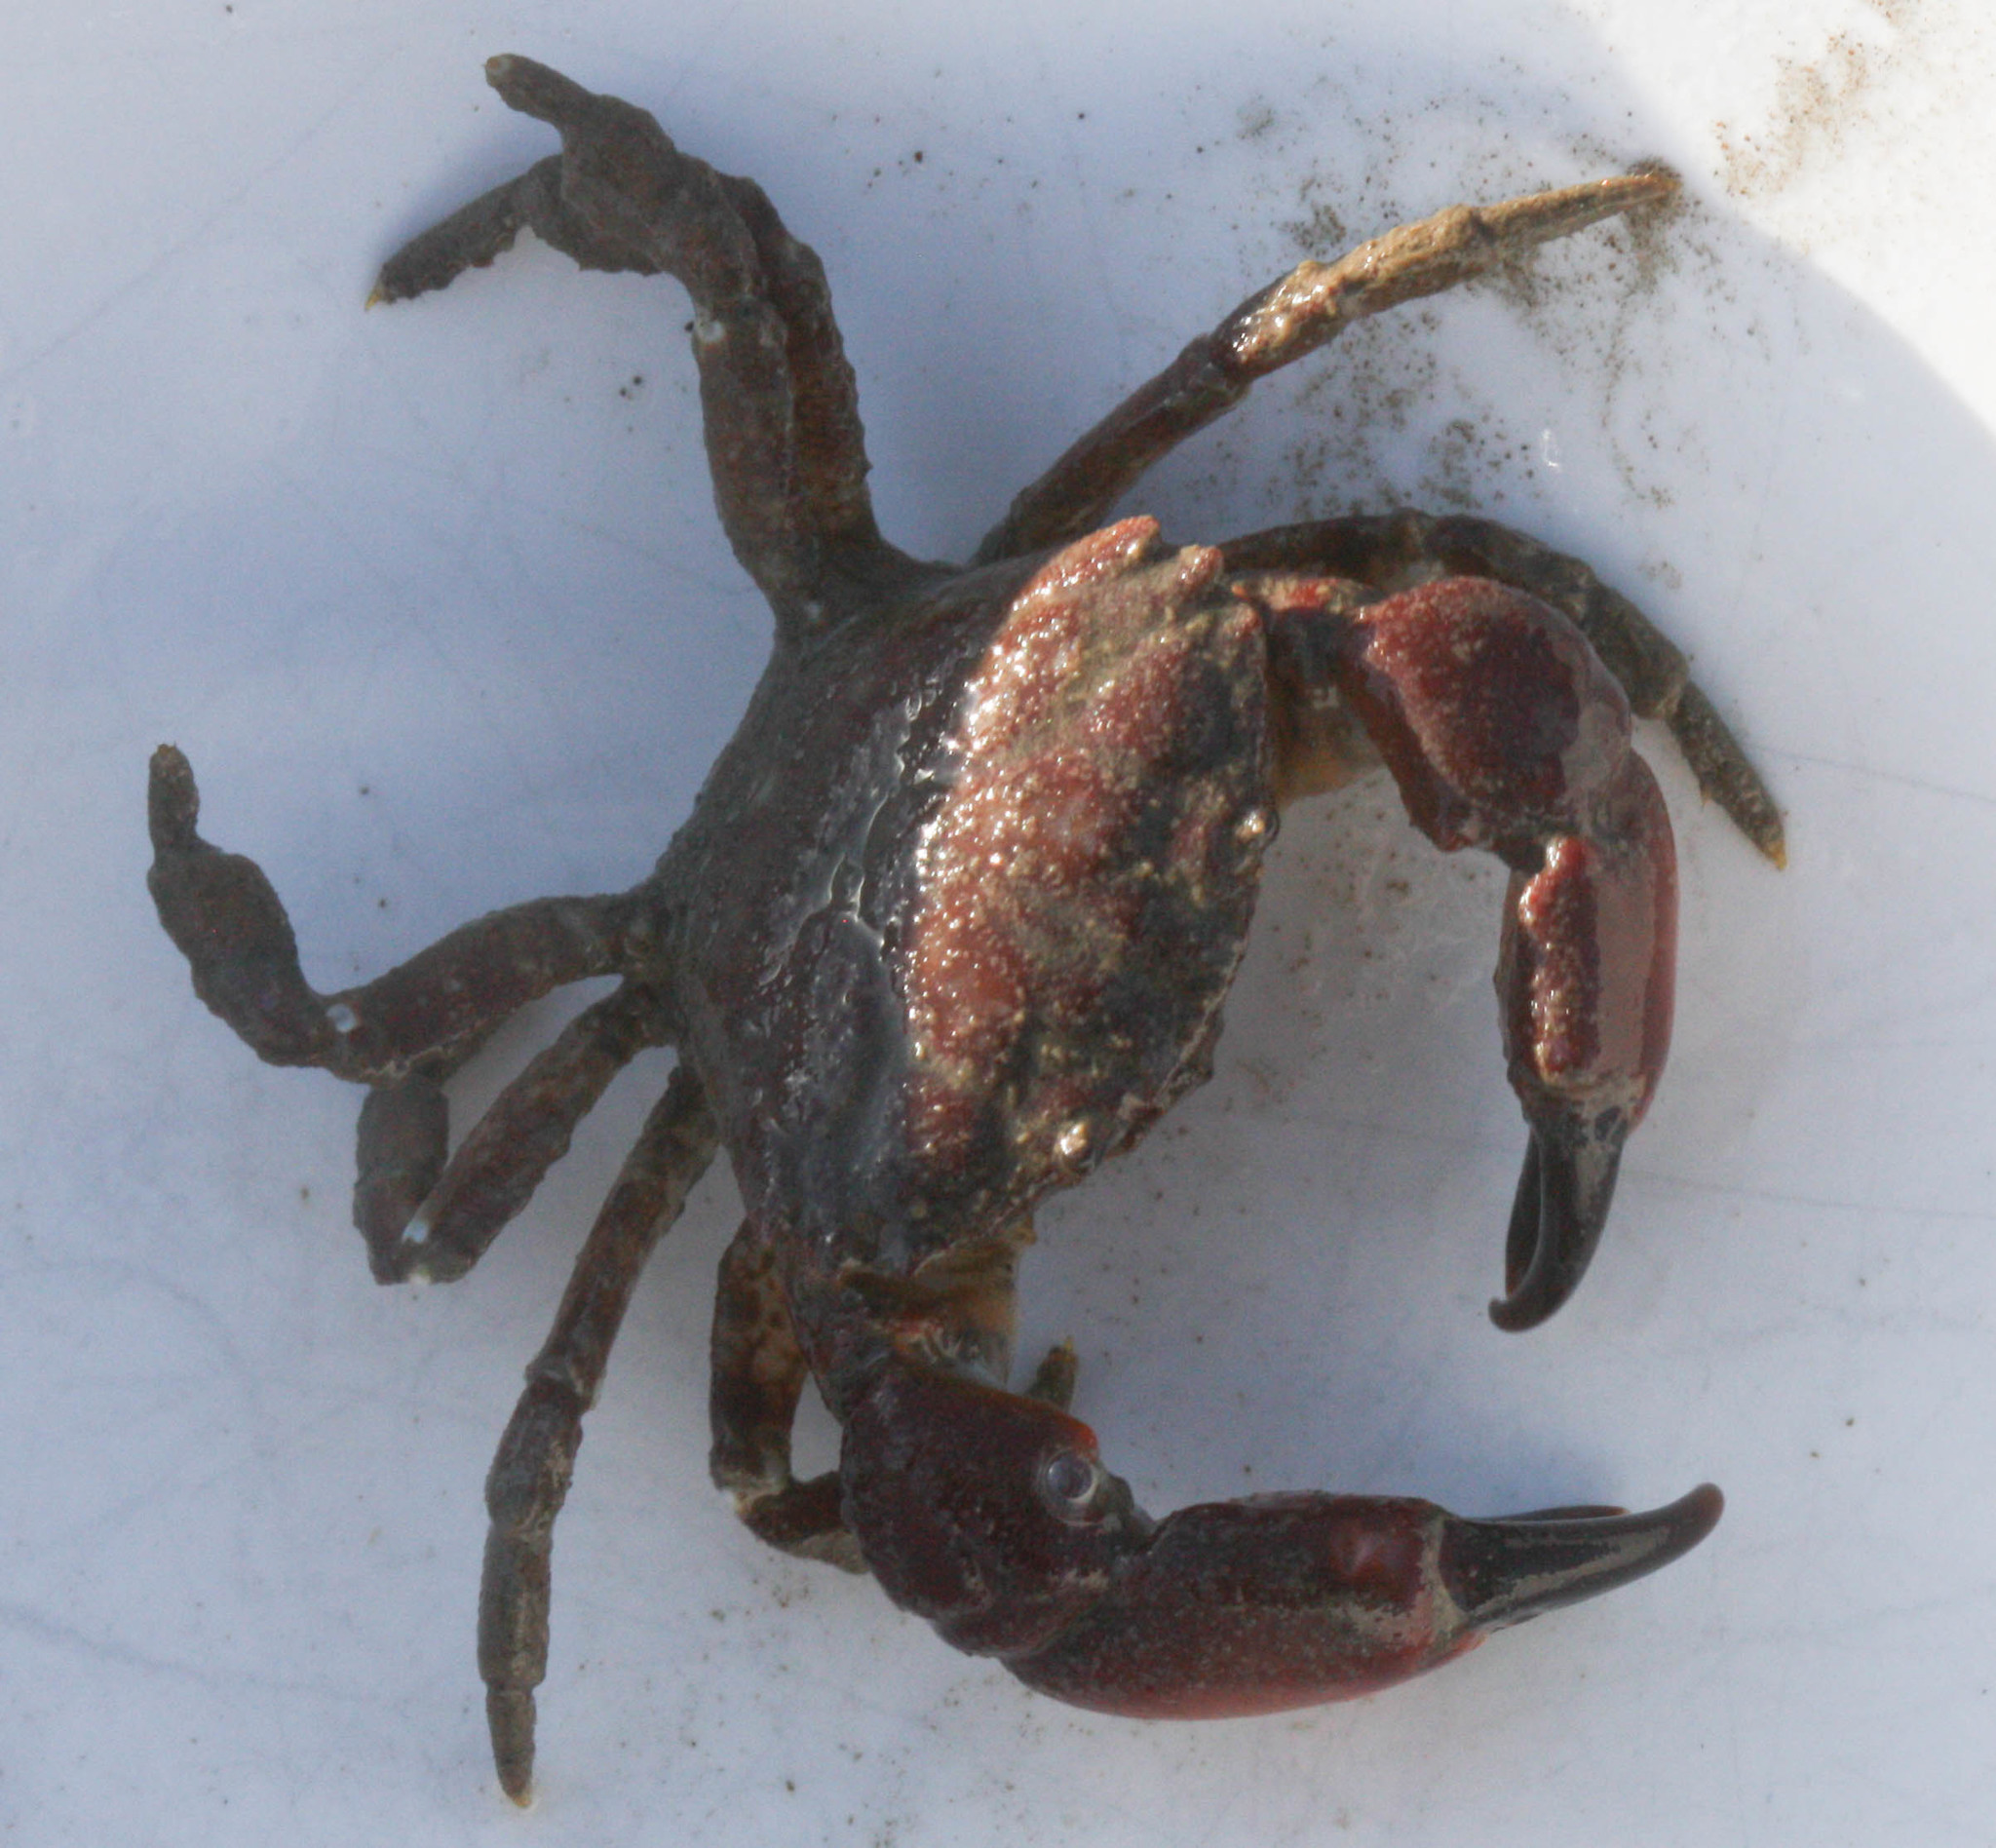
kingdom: Animalia
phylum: Arthropoda
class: Malacostraca
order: Decapoda
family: Panopeidae
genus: Lophopanopeus
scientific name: Lophopanopeus bellus
